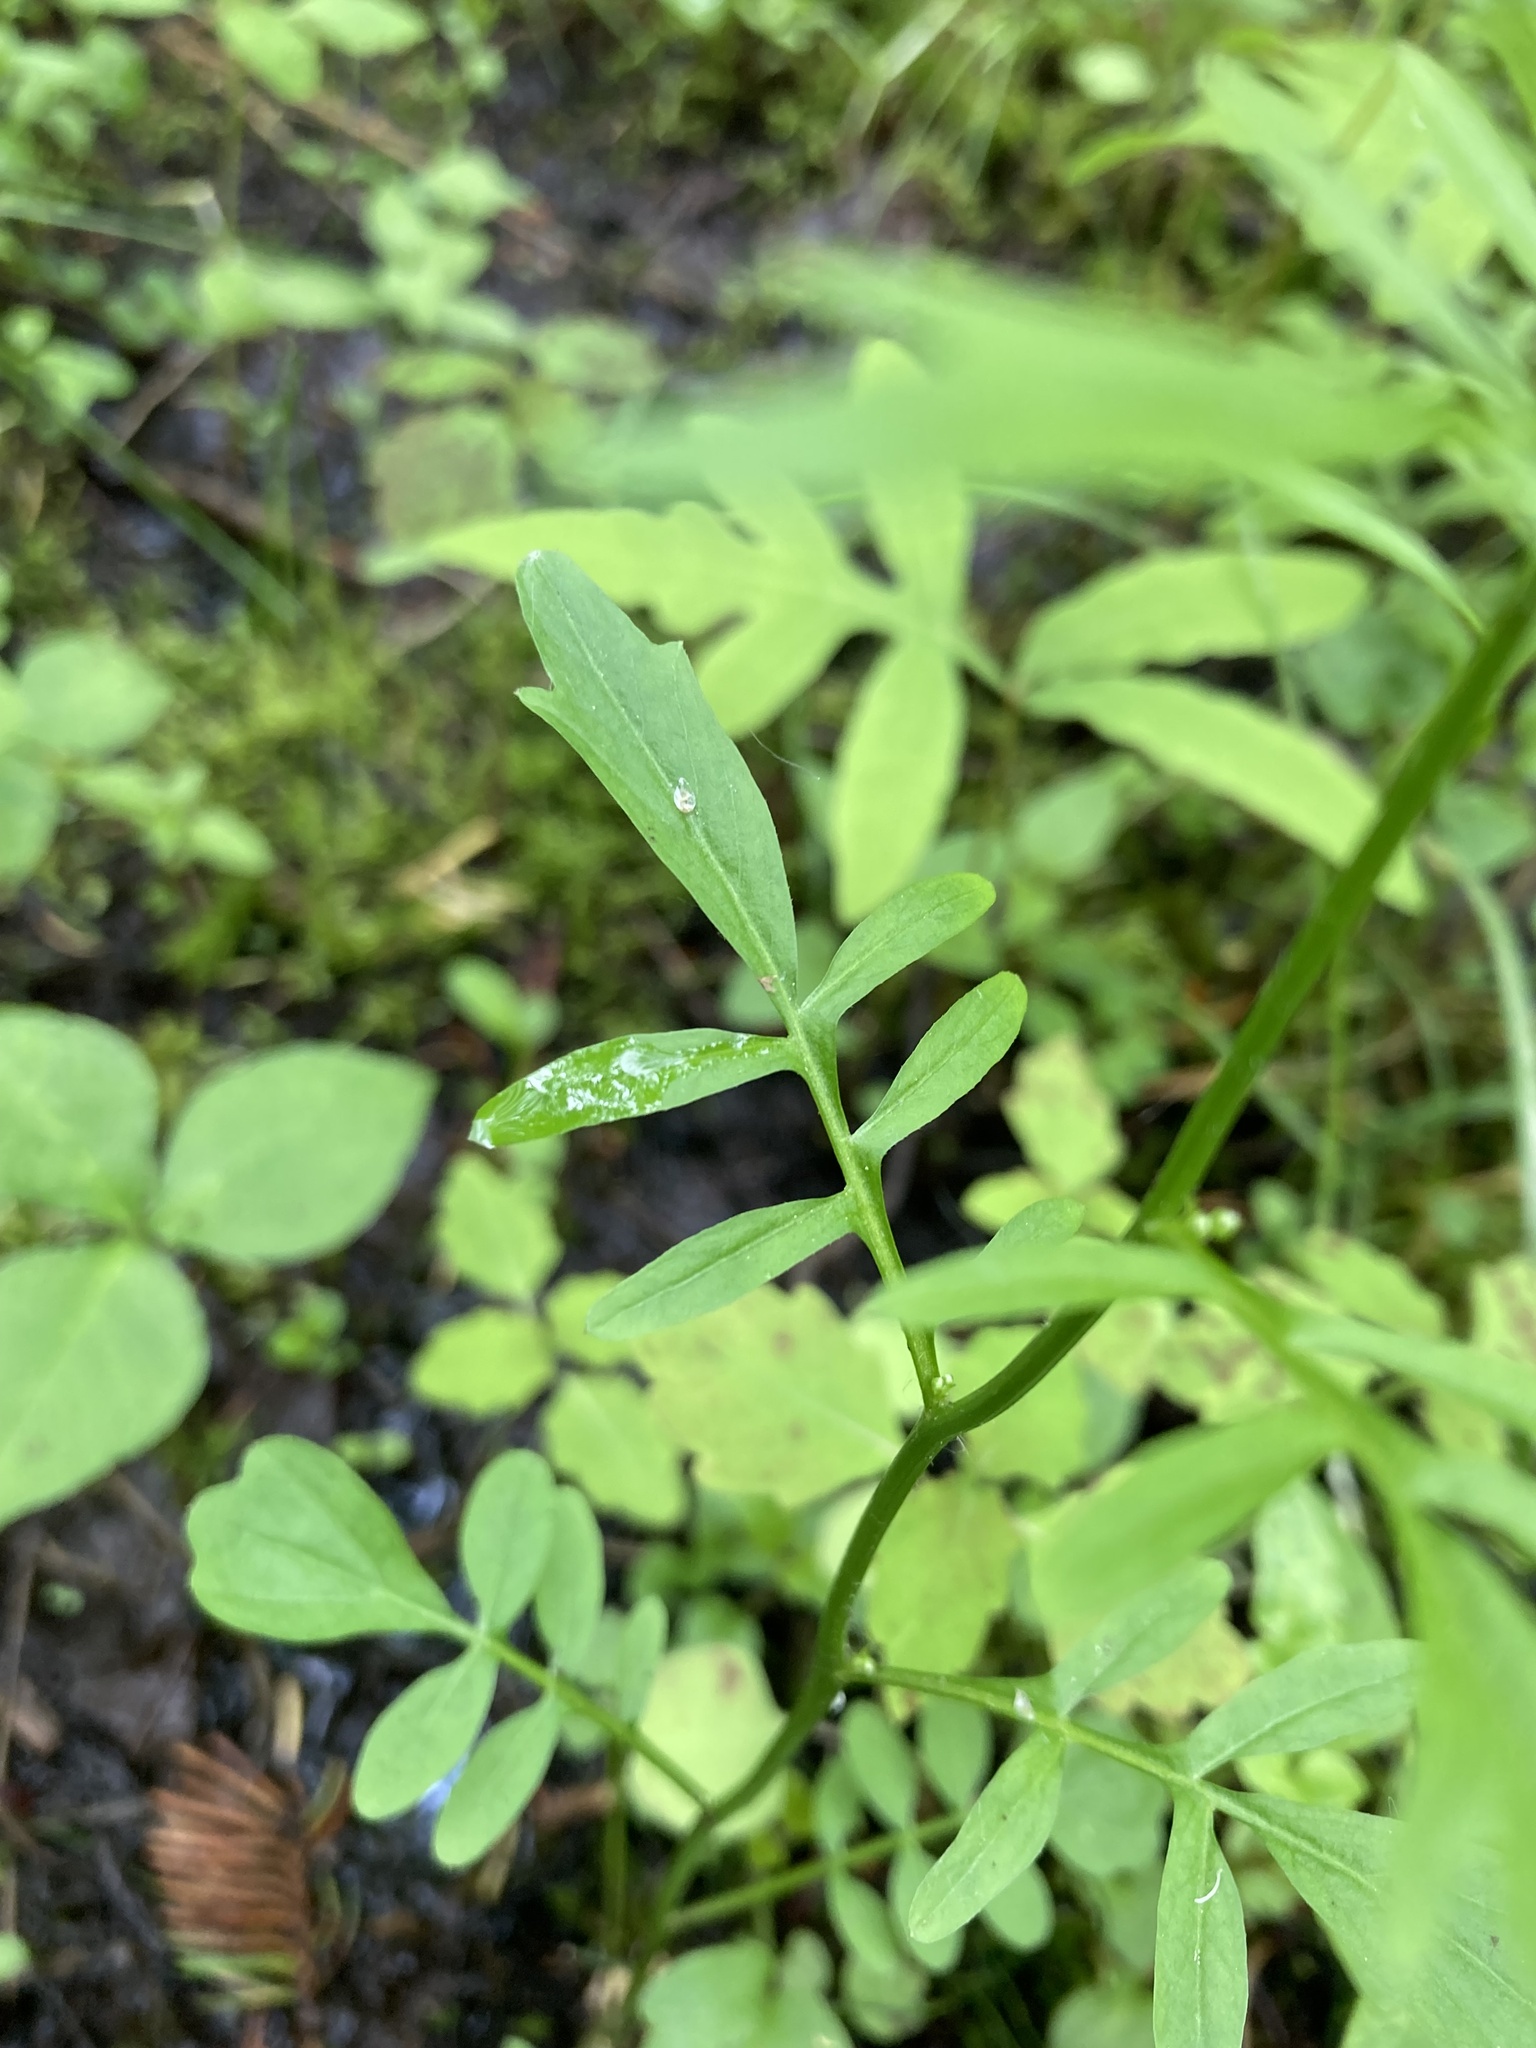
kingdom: Plantae
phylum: Tracheophyta
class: Magnoliopsida
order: Brassicales
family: Brassicaceae
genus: Cardamine
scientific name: Cardamine pensylvanica
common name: Pennsylvania bittercress
